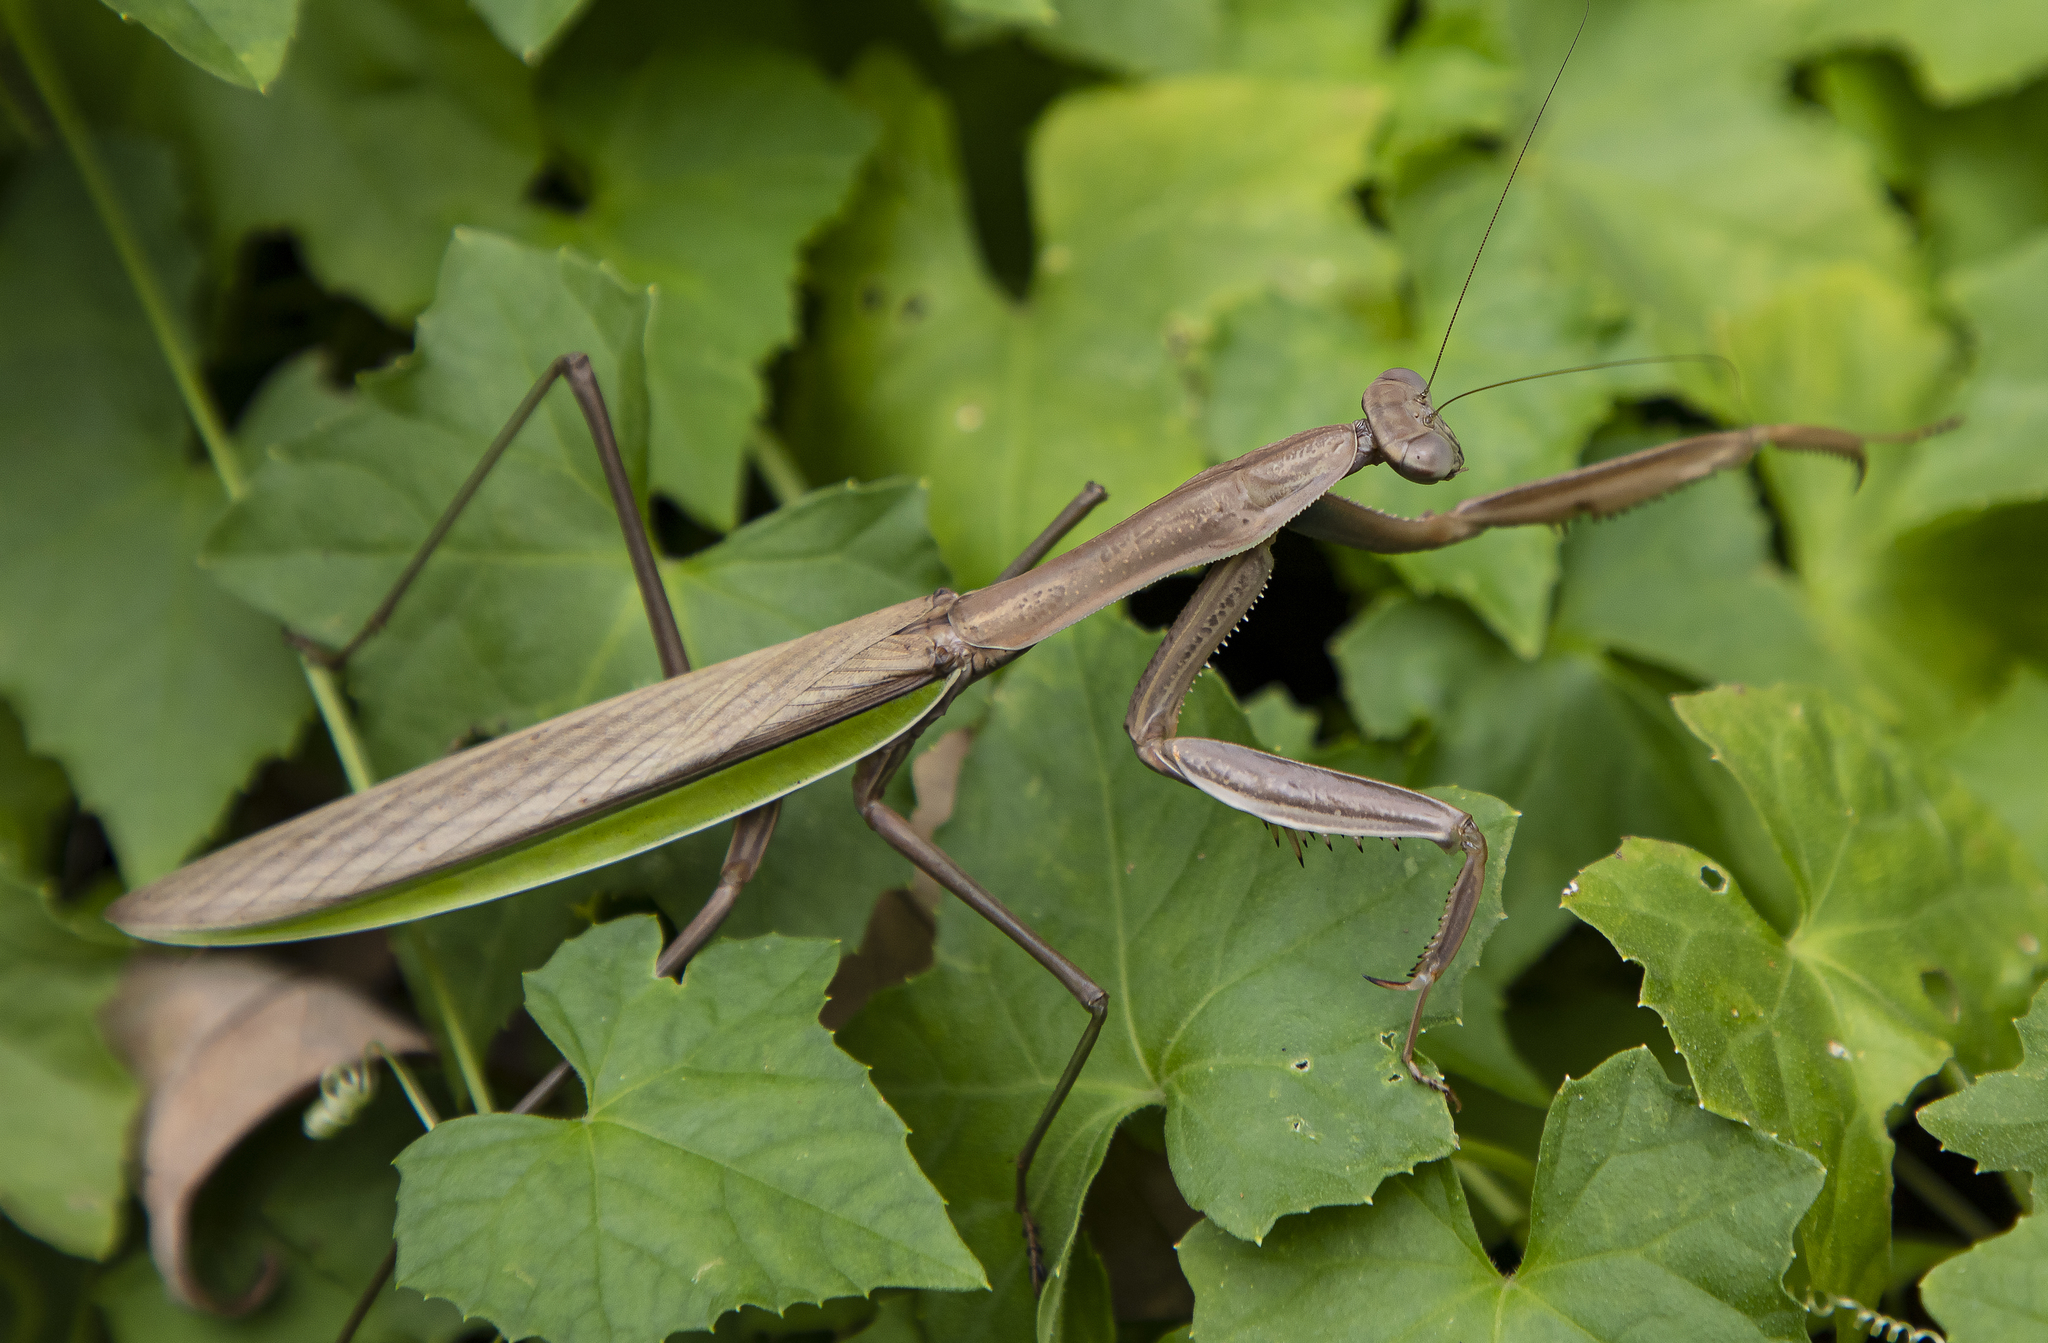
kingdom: Animalia
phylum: Arthropoda
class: Insecta
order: Mantodea
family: Mantidae
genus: Tenodera
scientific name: Tenodera sinensis
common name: Chinese mantis
